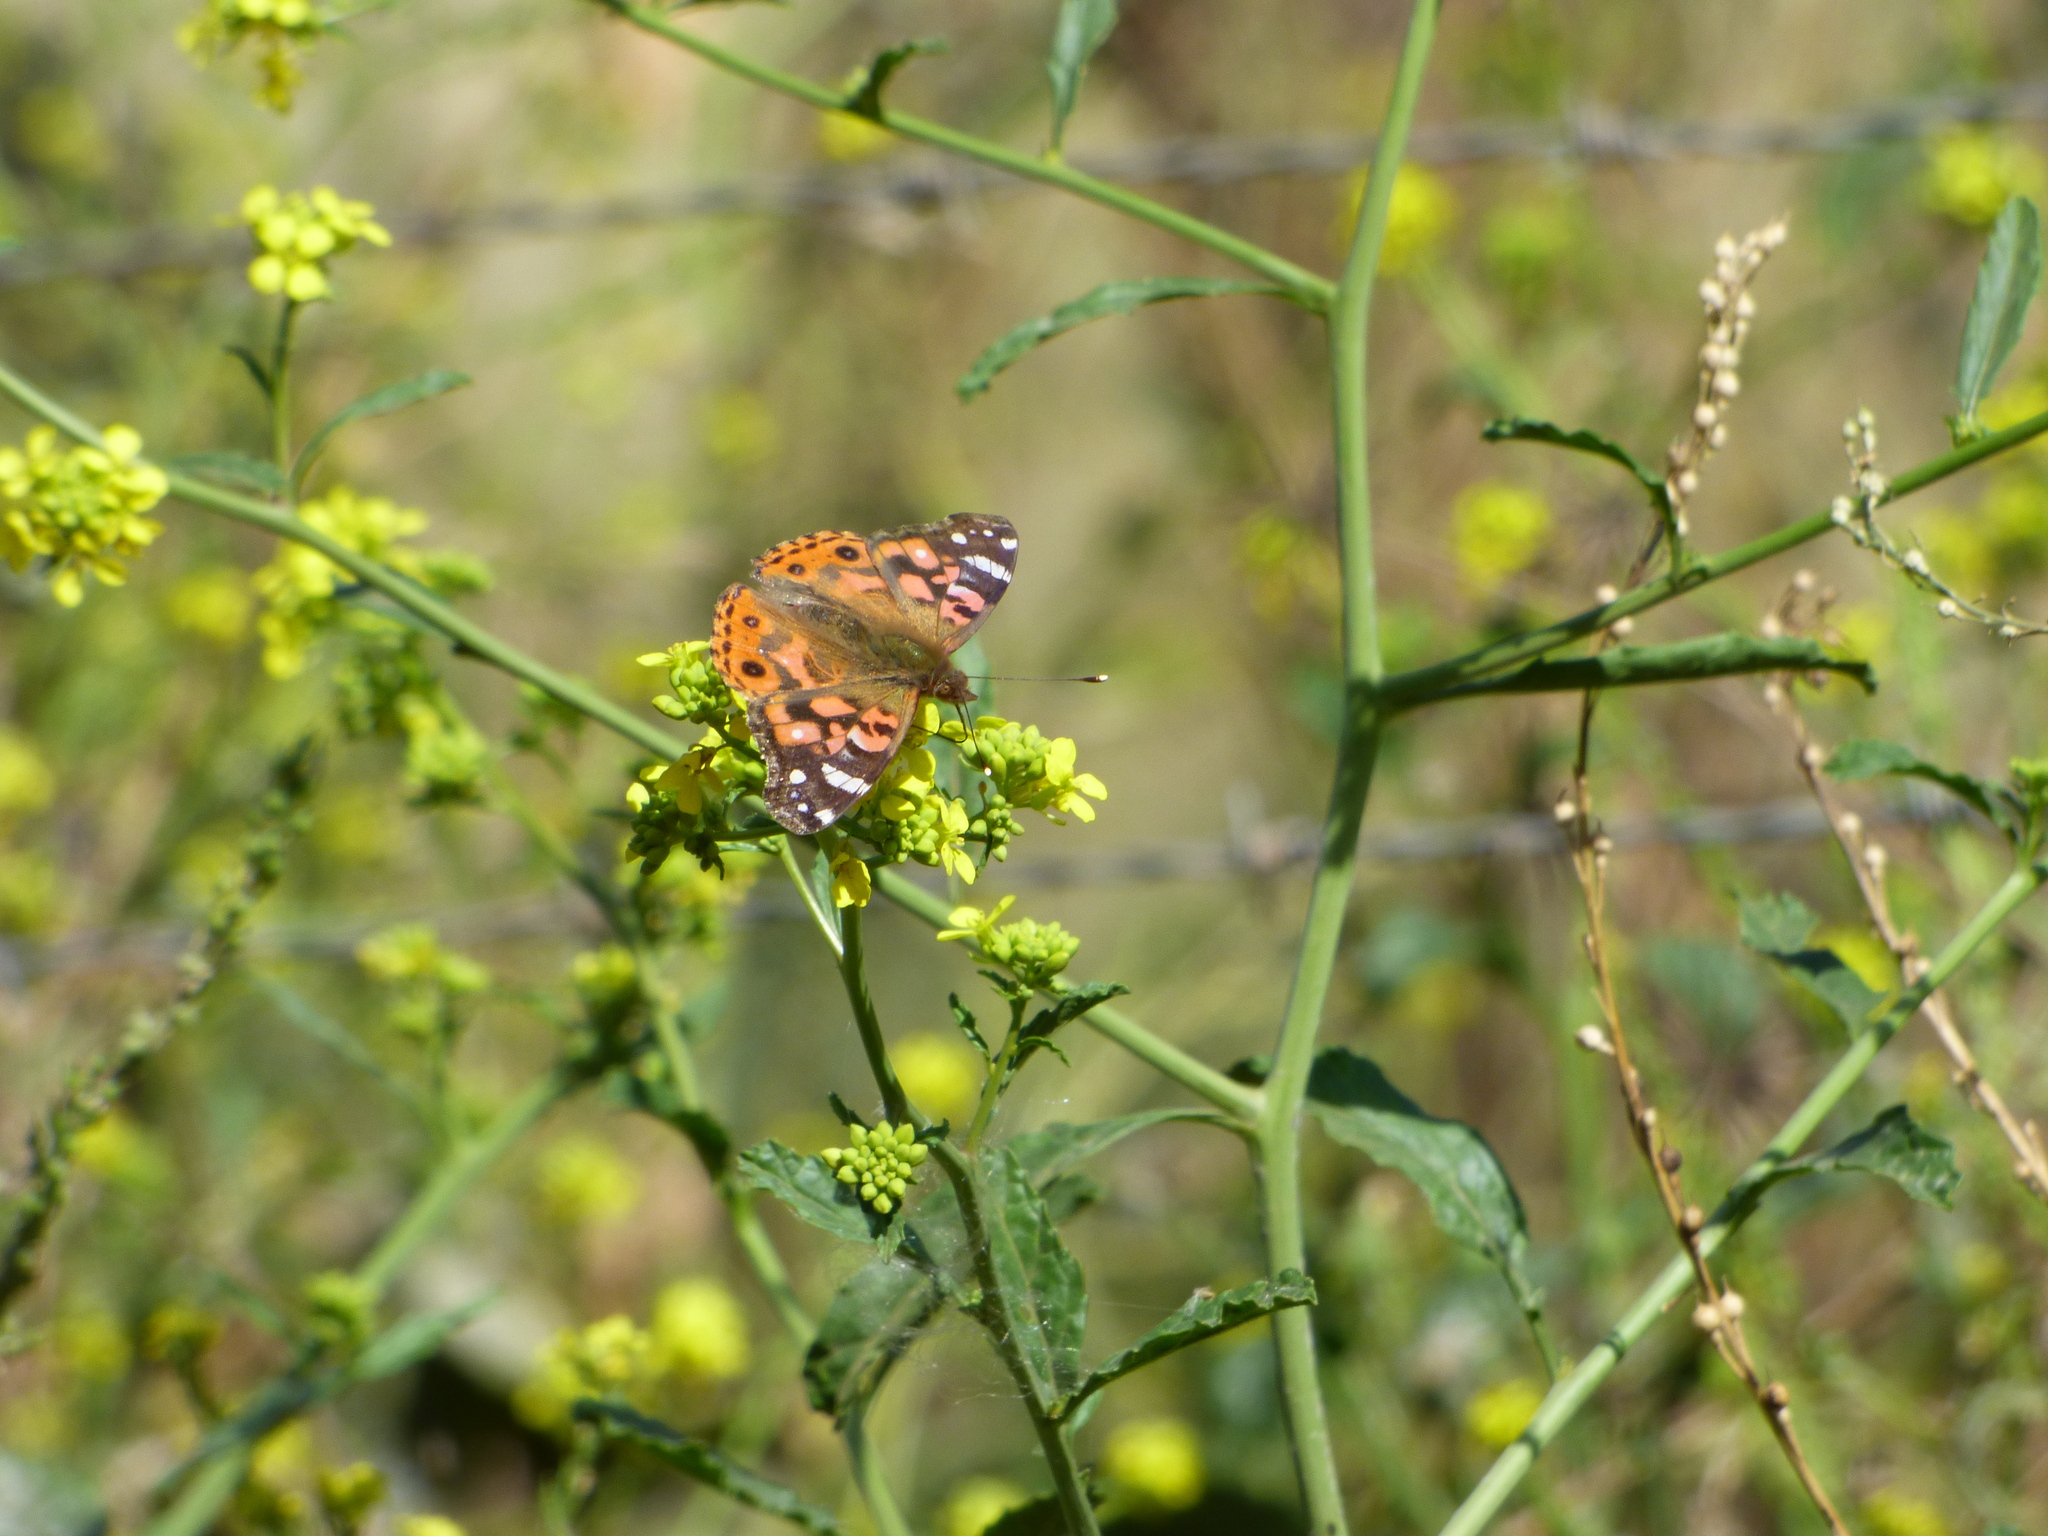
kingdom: Animalia
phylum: Arthropoda
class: Insecta
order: Lepidoptera
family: Nymphalidae
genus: Vanessa
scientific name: Vanessa braziliensis
